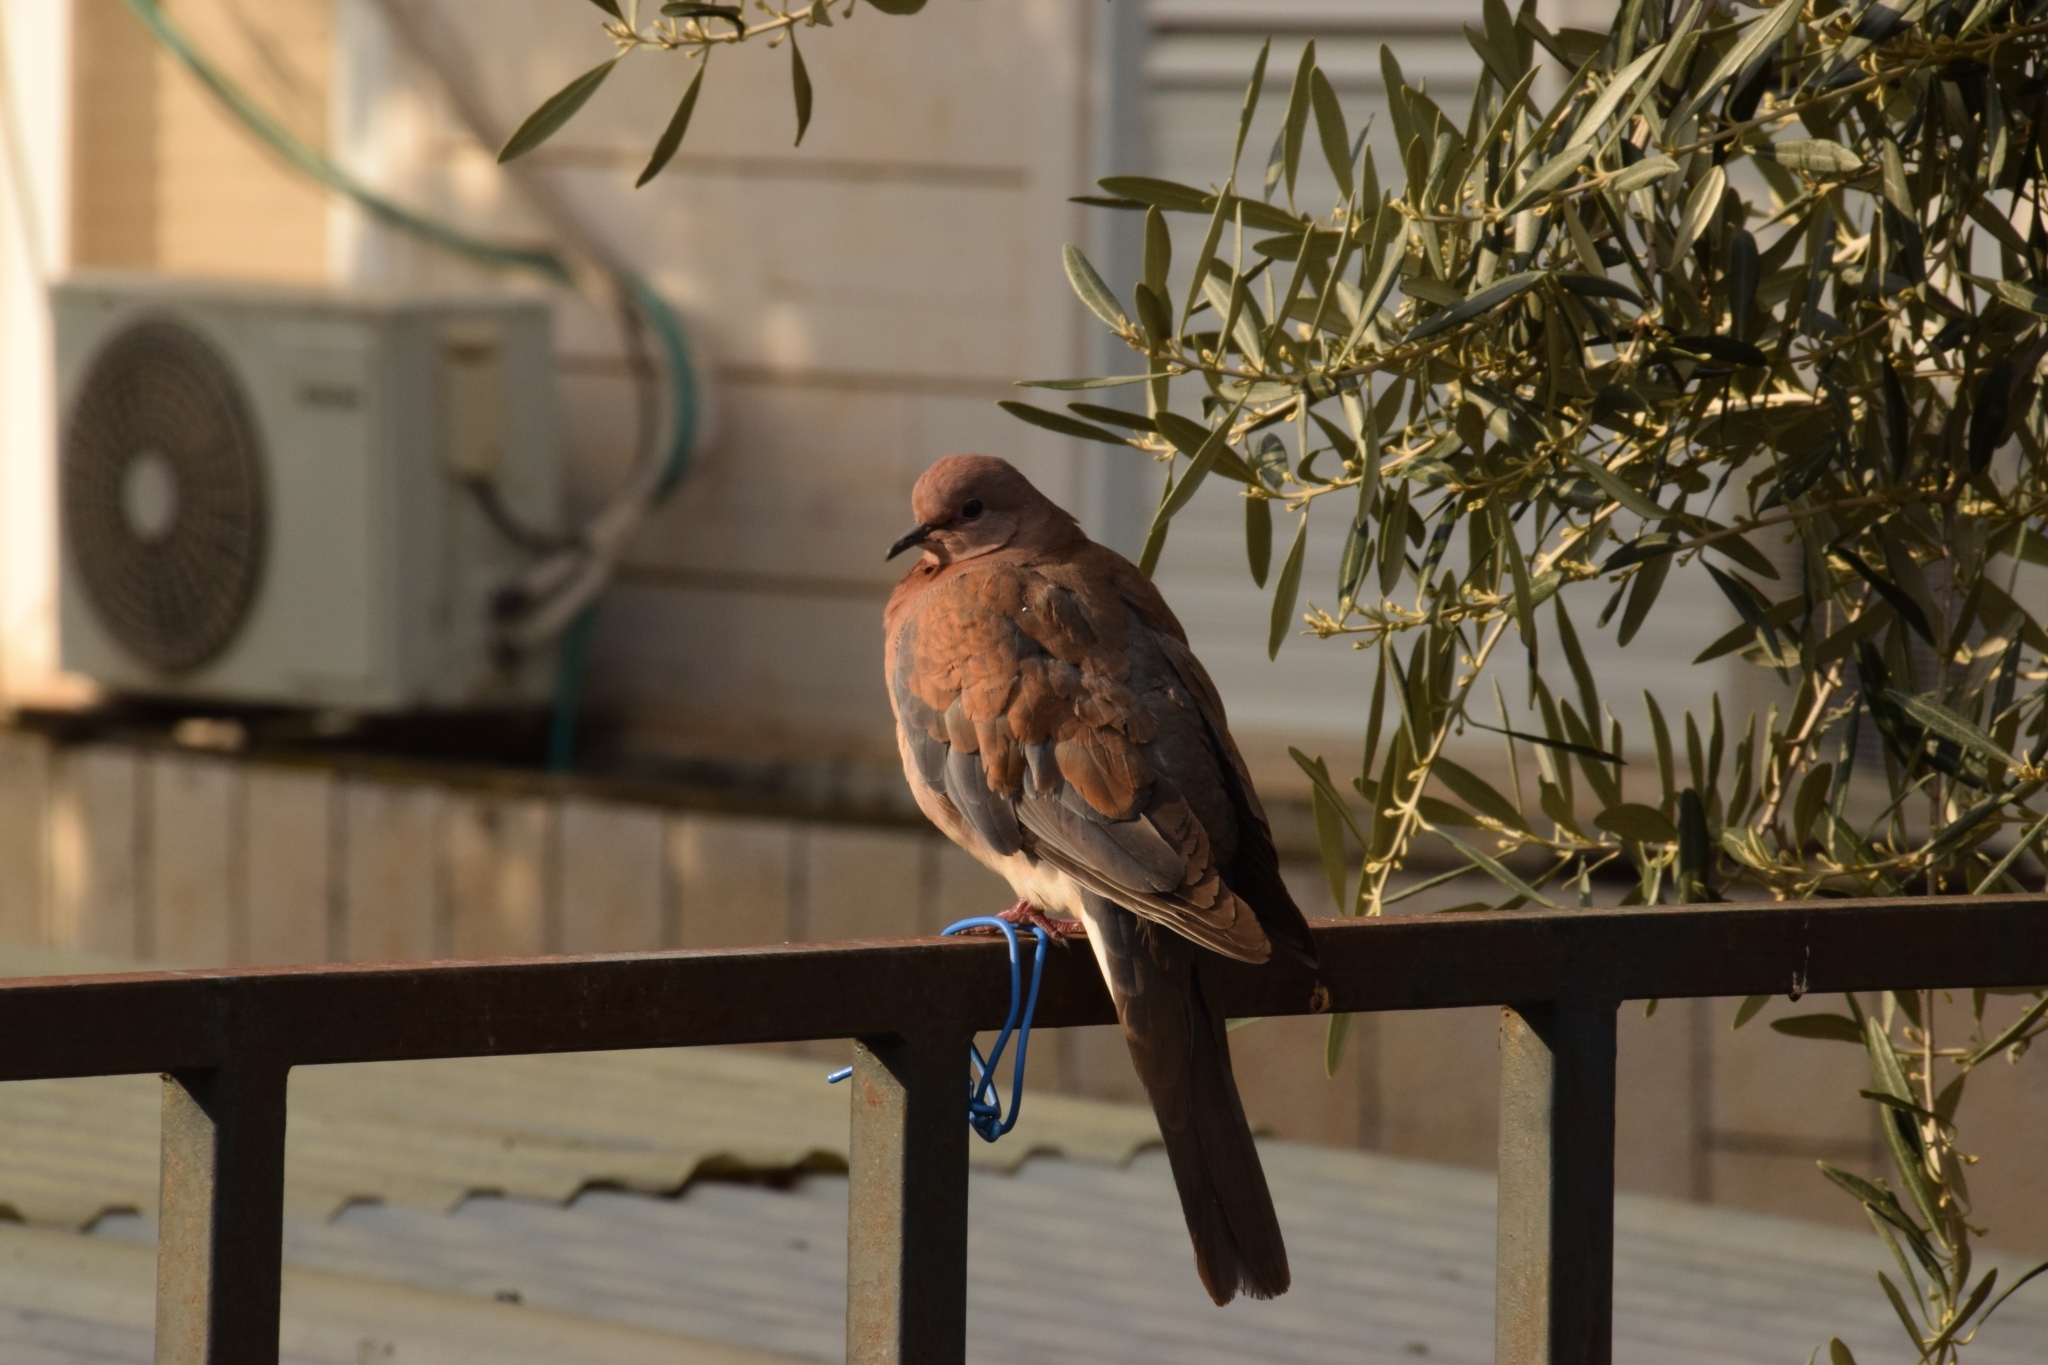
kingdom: Animalia
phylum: Chordata
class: Aves
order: Columbiformes
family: Columbidae
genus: Spilopelia
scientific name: Spilopelia senegalensis
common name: Laughing dove
